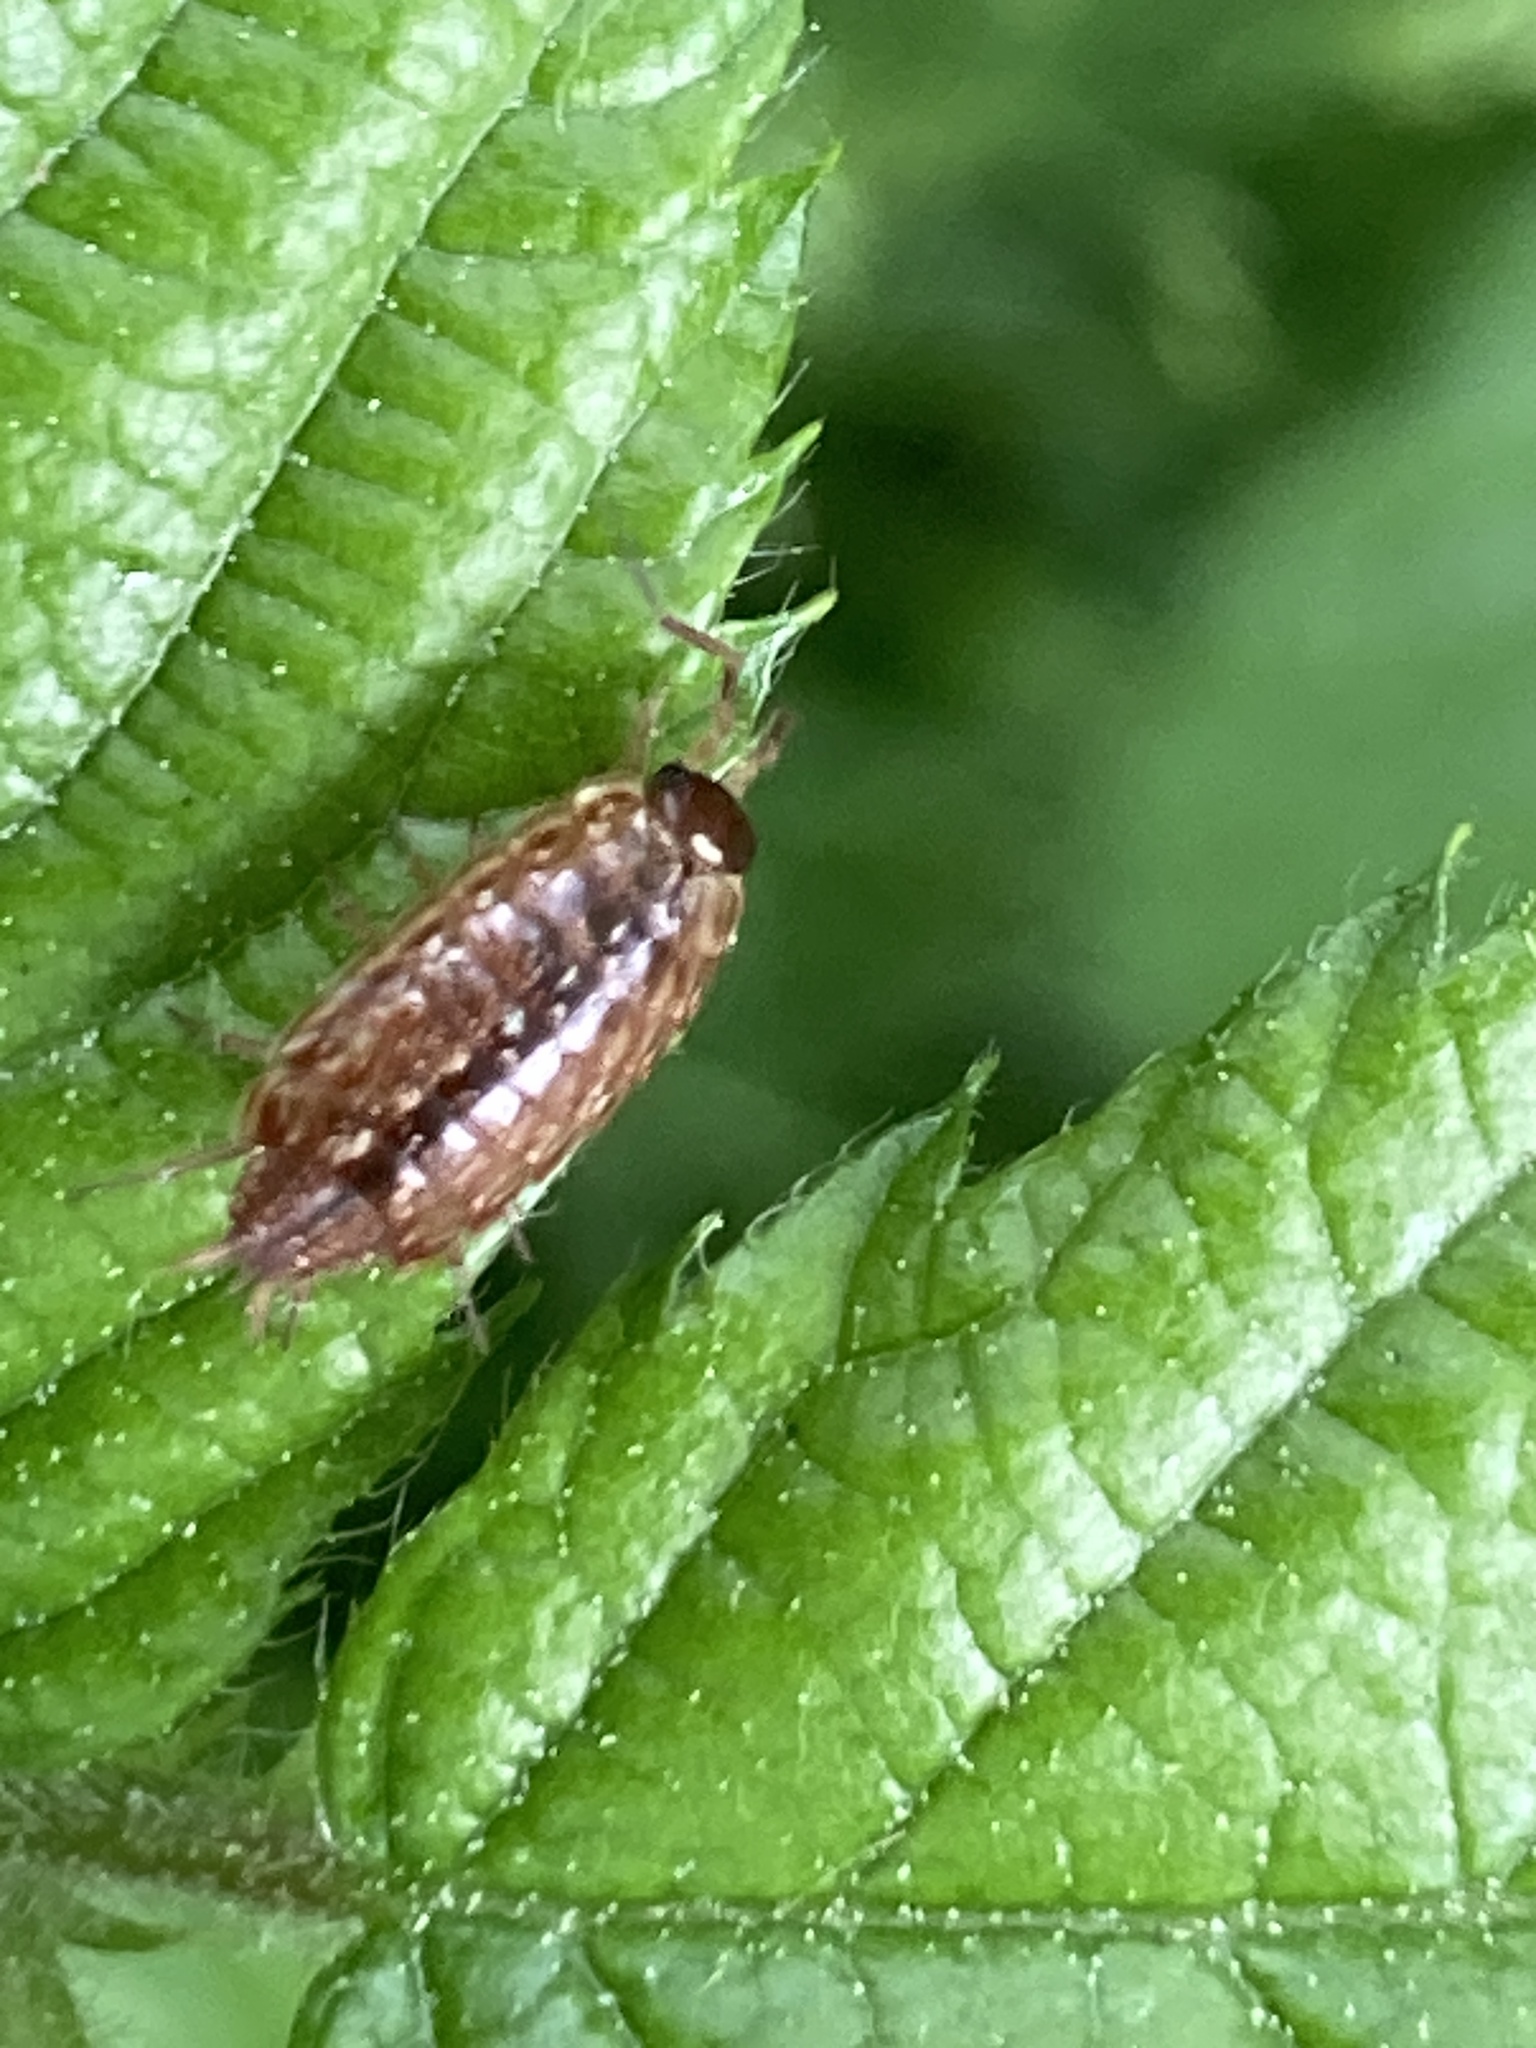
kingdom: Animalia
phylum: Arthropoda
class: Malacostraca
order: Isopoda
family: Philosciidae
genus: Philoscia
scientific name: Philoscia muscorum
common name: Common striped woodlouse
